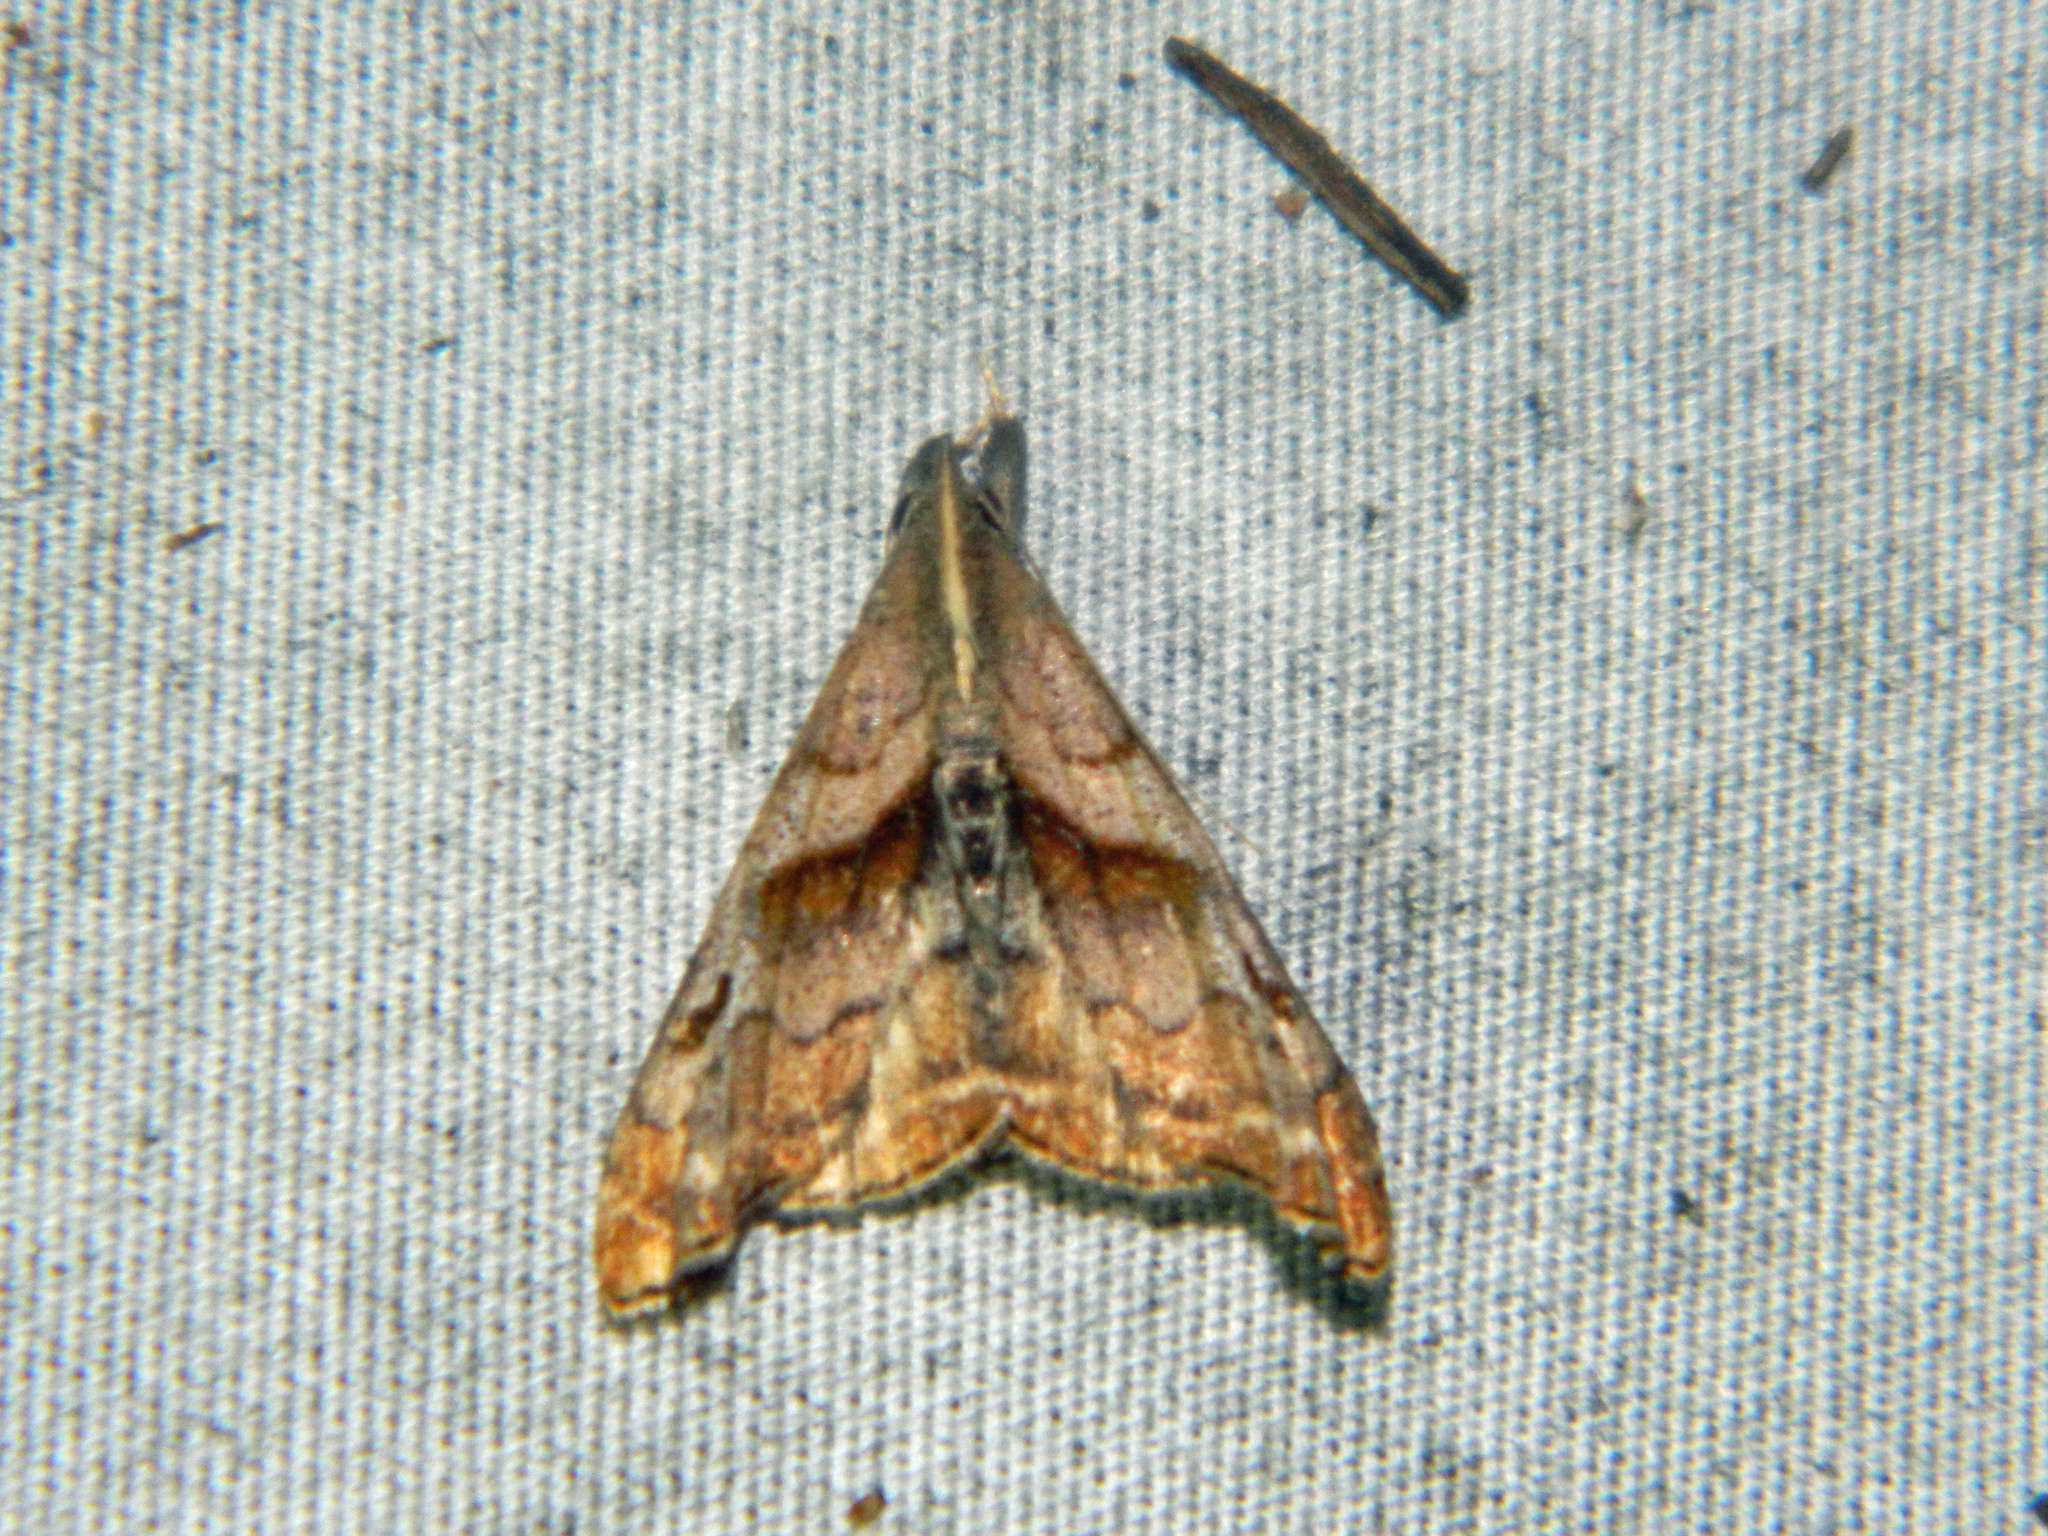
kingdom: Animalia
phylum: Arthropoda
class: Insecta
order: Lepidoptera
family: Erebidae
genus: Palthis
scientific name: Palthis angulalis
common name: Dark-spotted palthis moth
